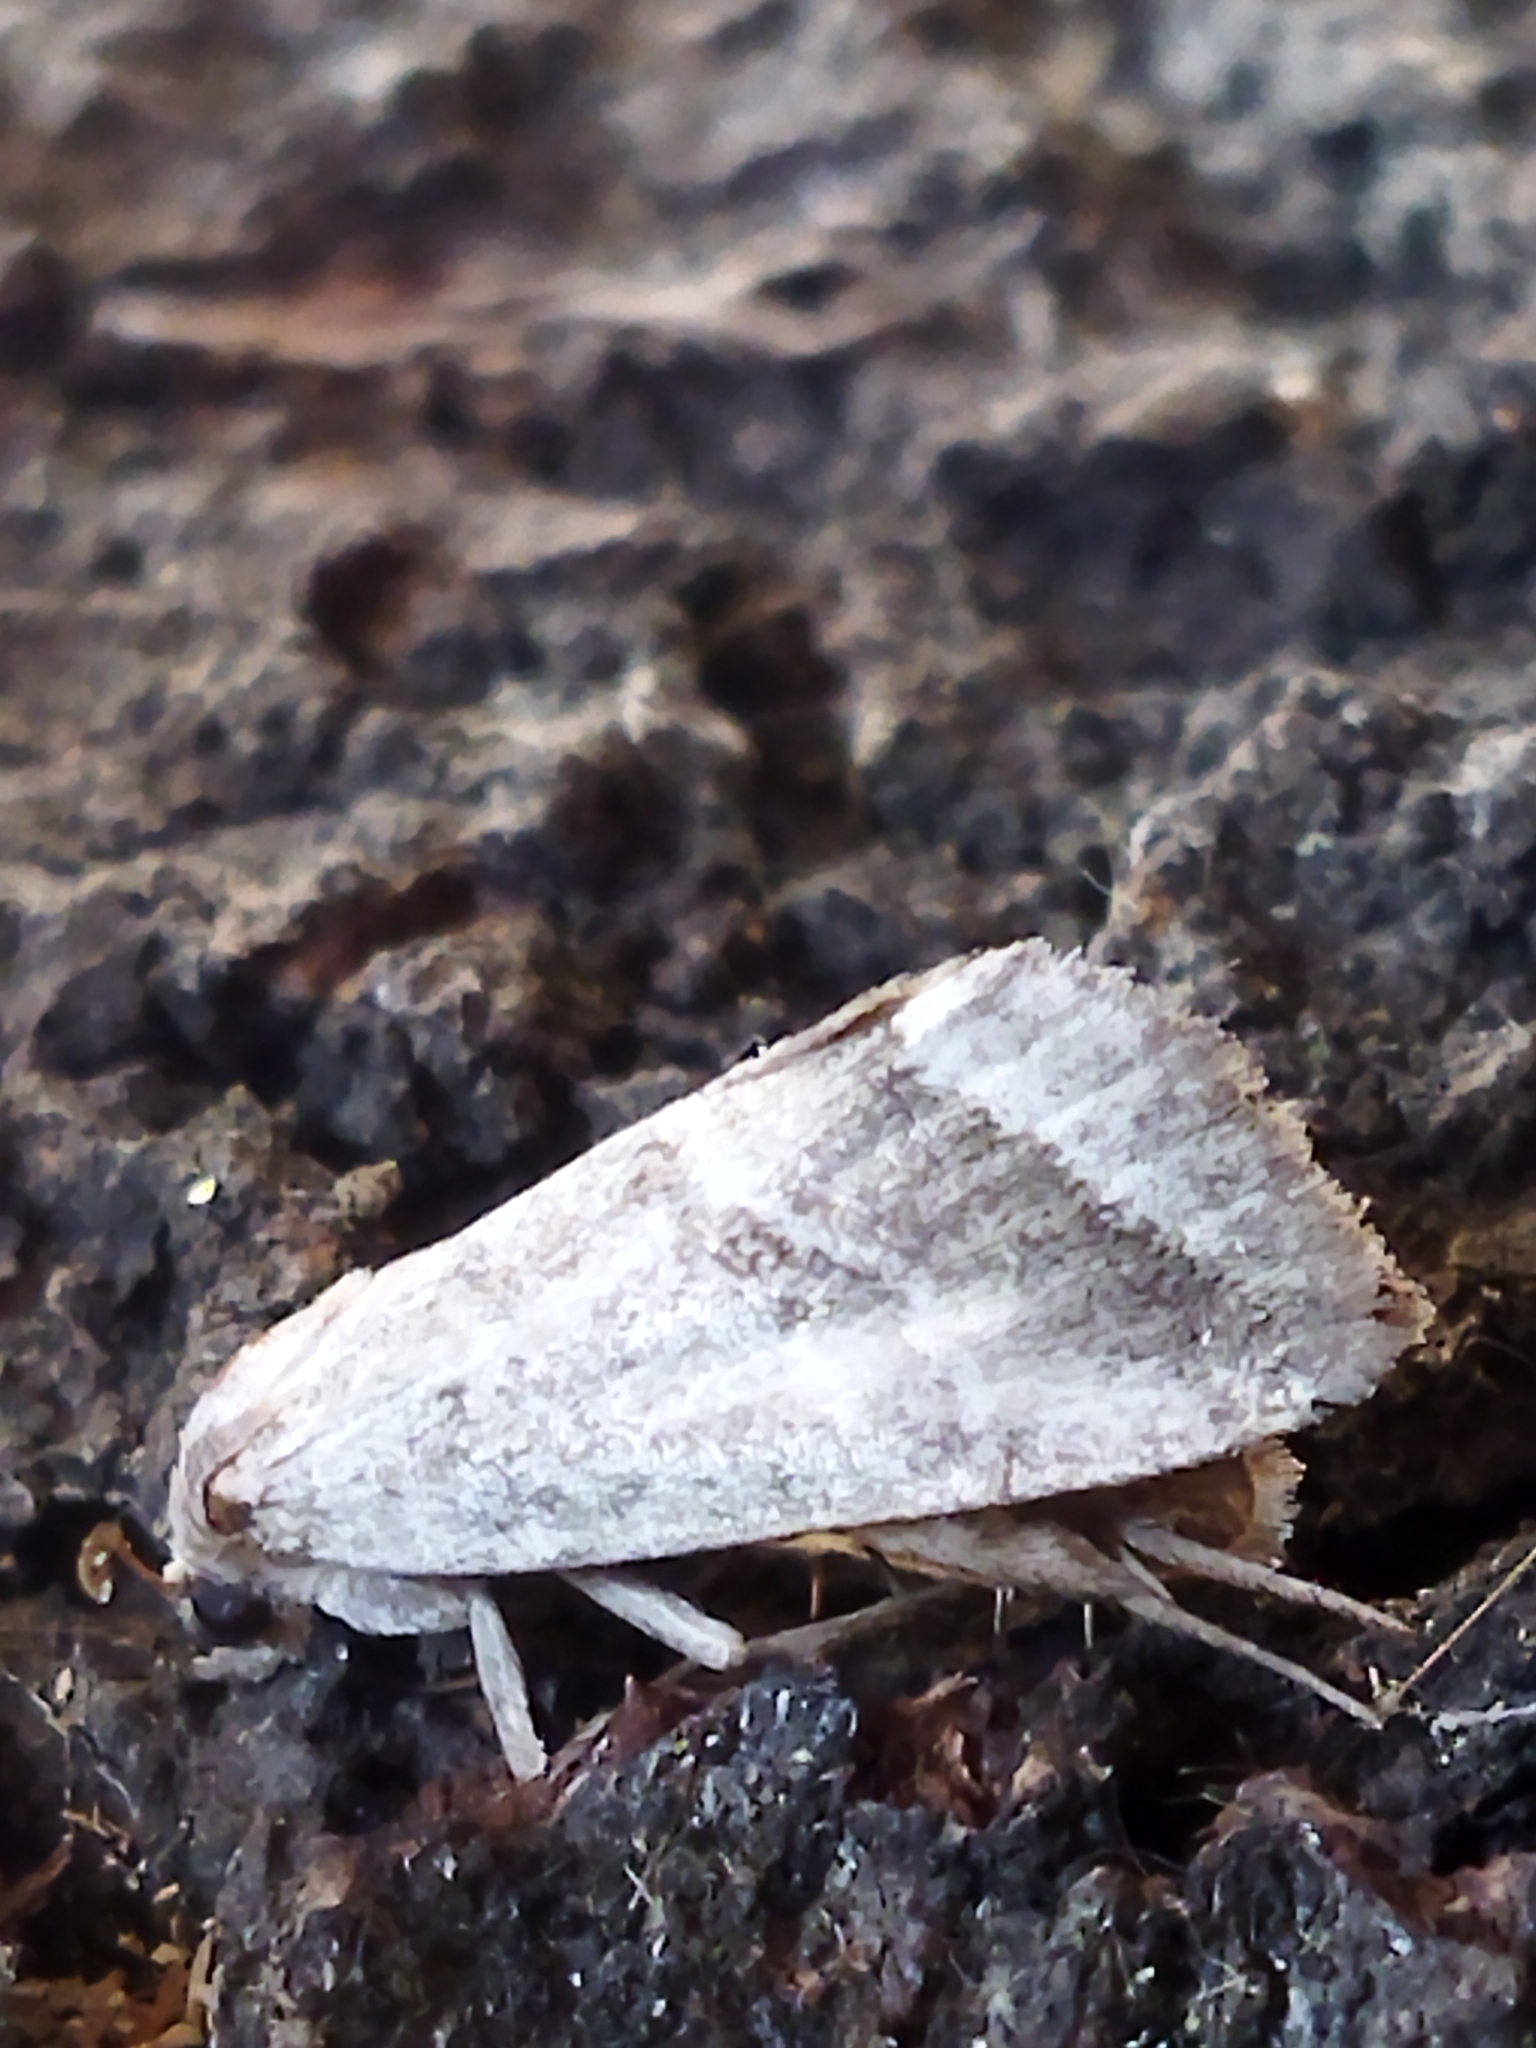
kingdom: Animalia
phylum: Arthropoda
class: Insecta
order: Lepidoptera
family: Noctuidae
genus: Phyllophila
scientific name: Phyllophila obliterata
